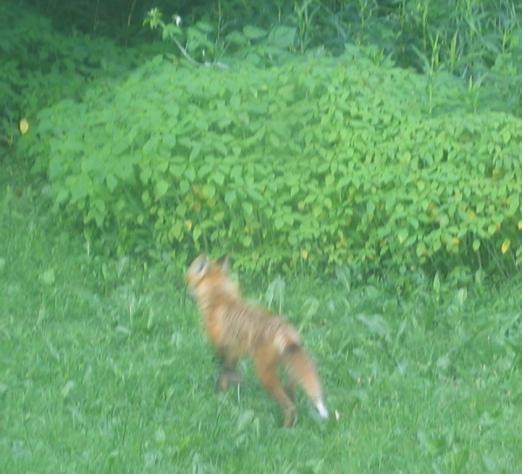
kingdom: Animalia
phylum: Chordata
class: Mammalia
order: Carnivora
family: Canidae
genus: Vulpes
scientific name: Vulpes vulpes
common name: Red fox
